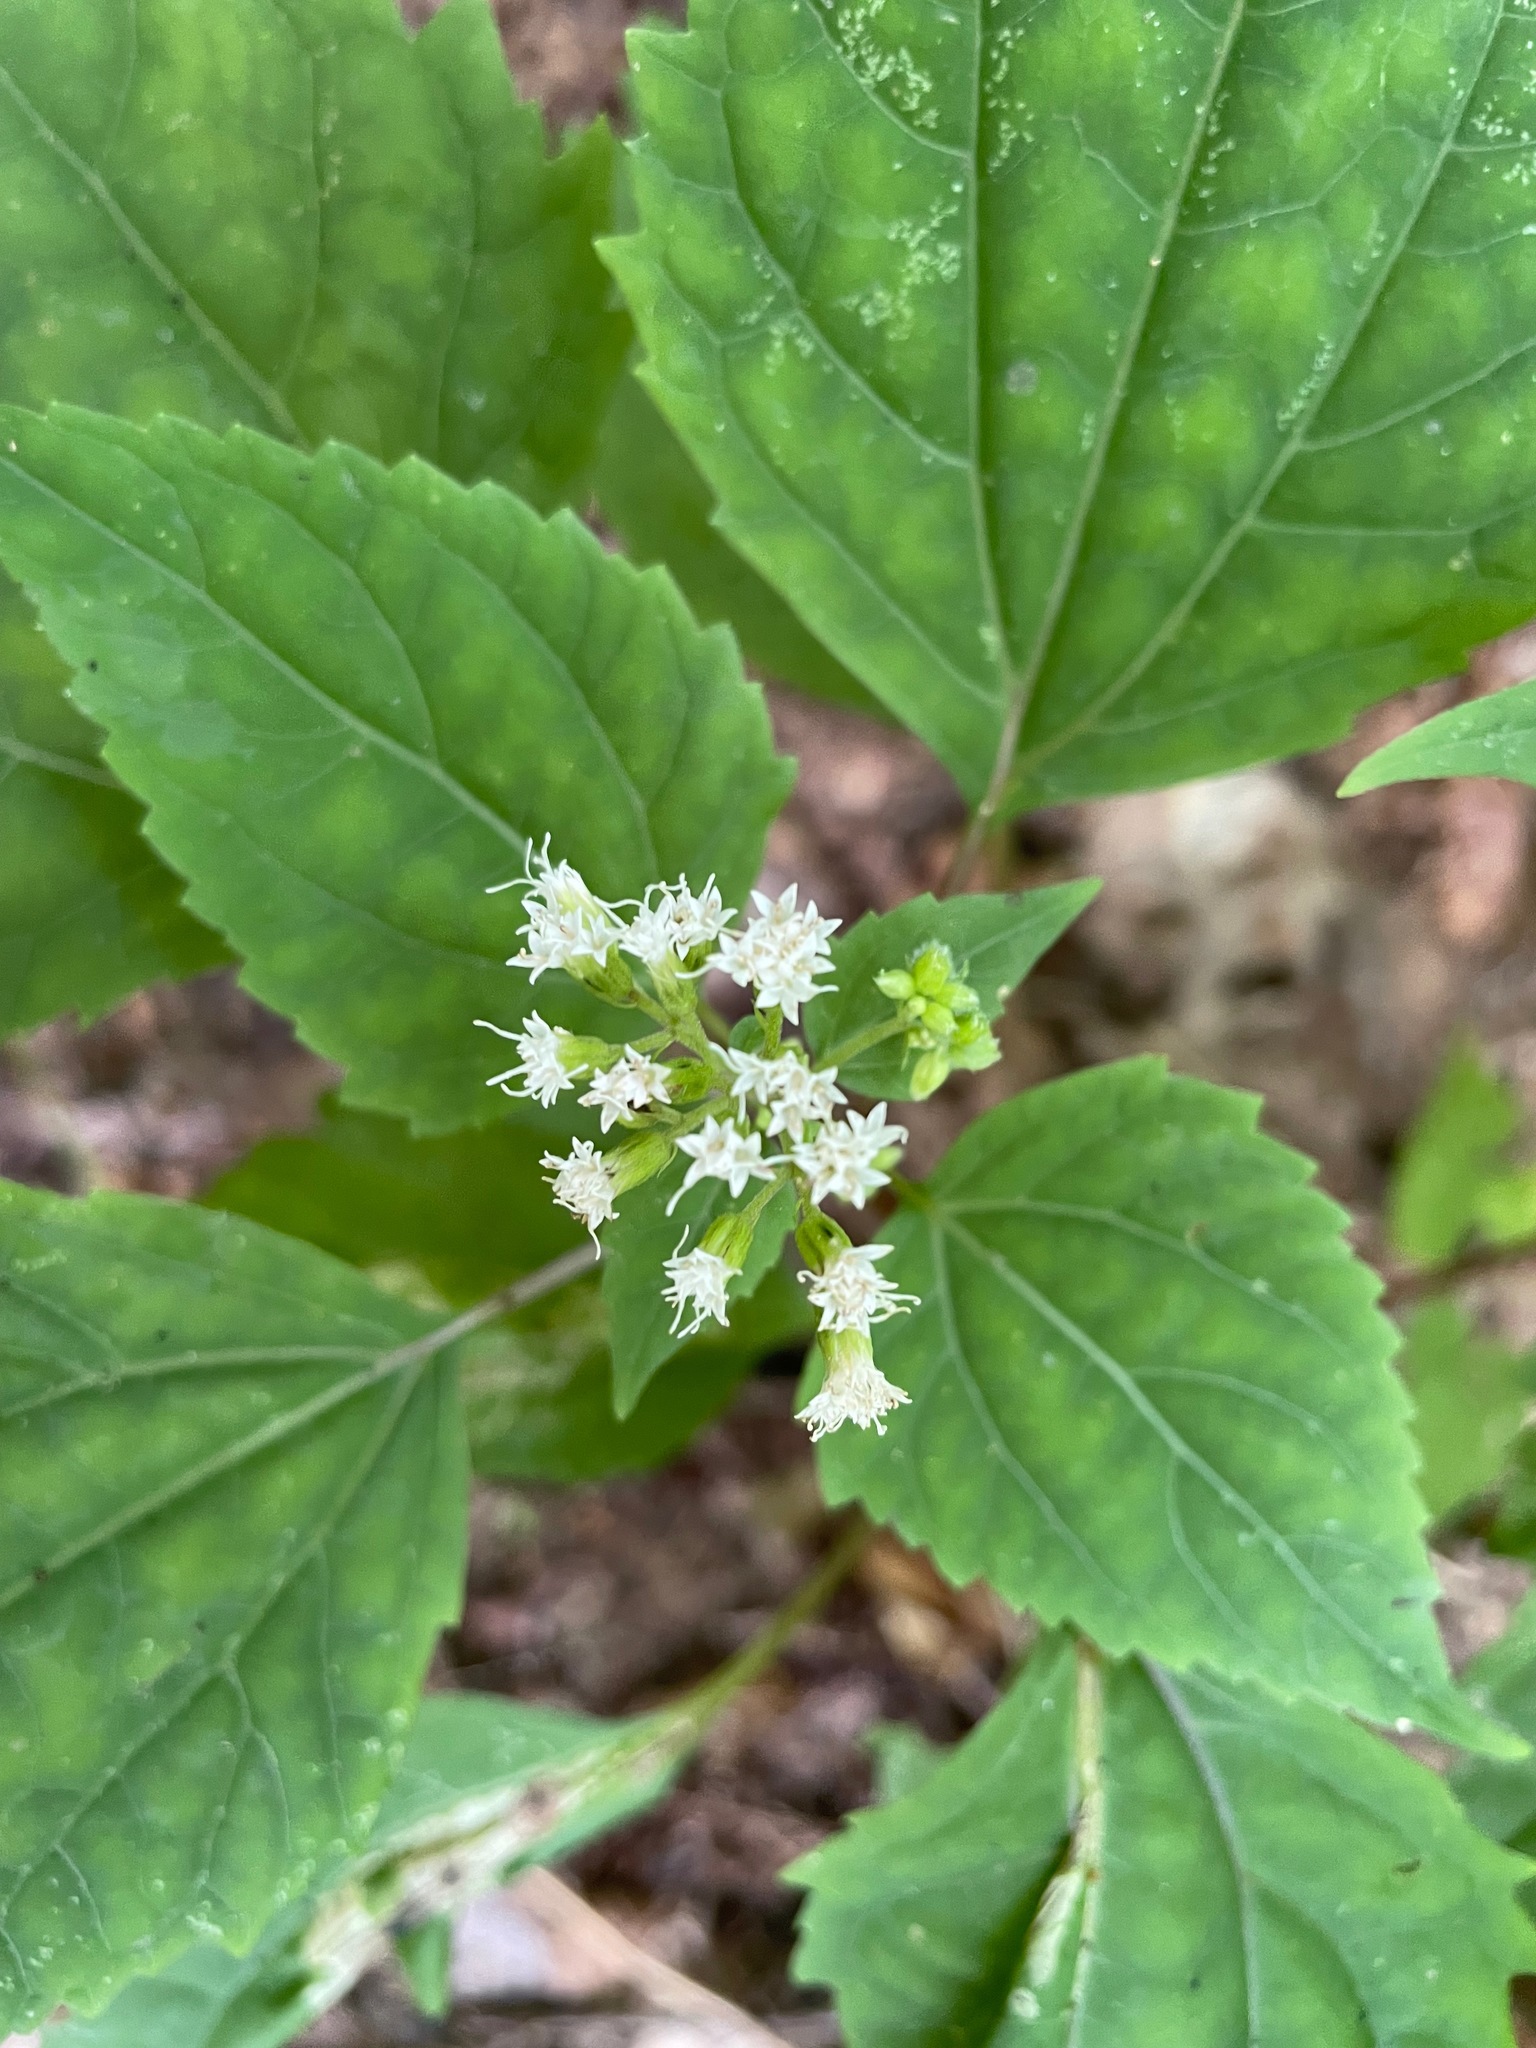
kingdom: Plantae
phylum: Tracheophyta
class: Magnoliopsida
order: Asterales
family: Asteraceae
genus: Ageratina
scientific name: Ageratina altissima
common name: White snakeroot
